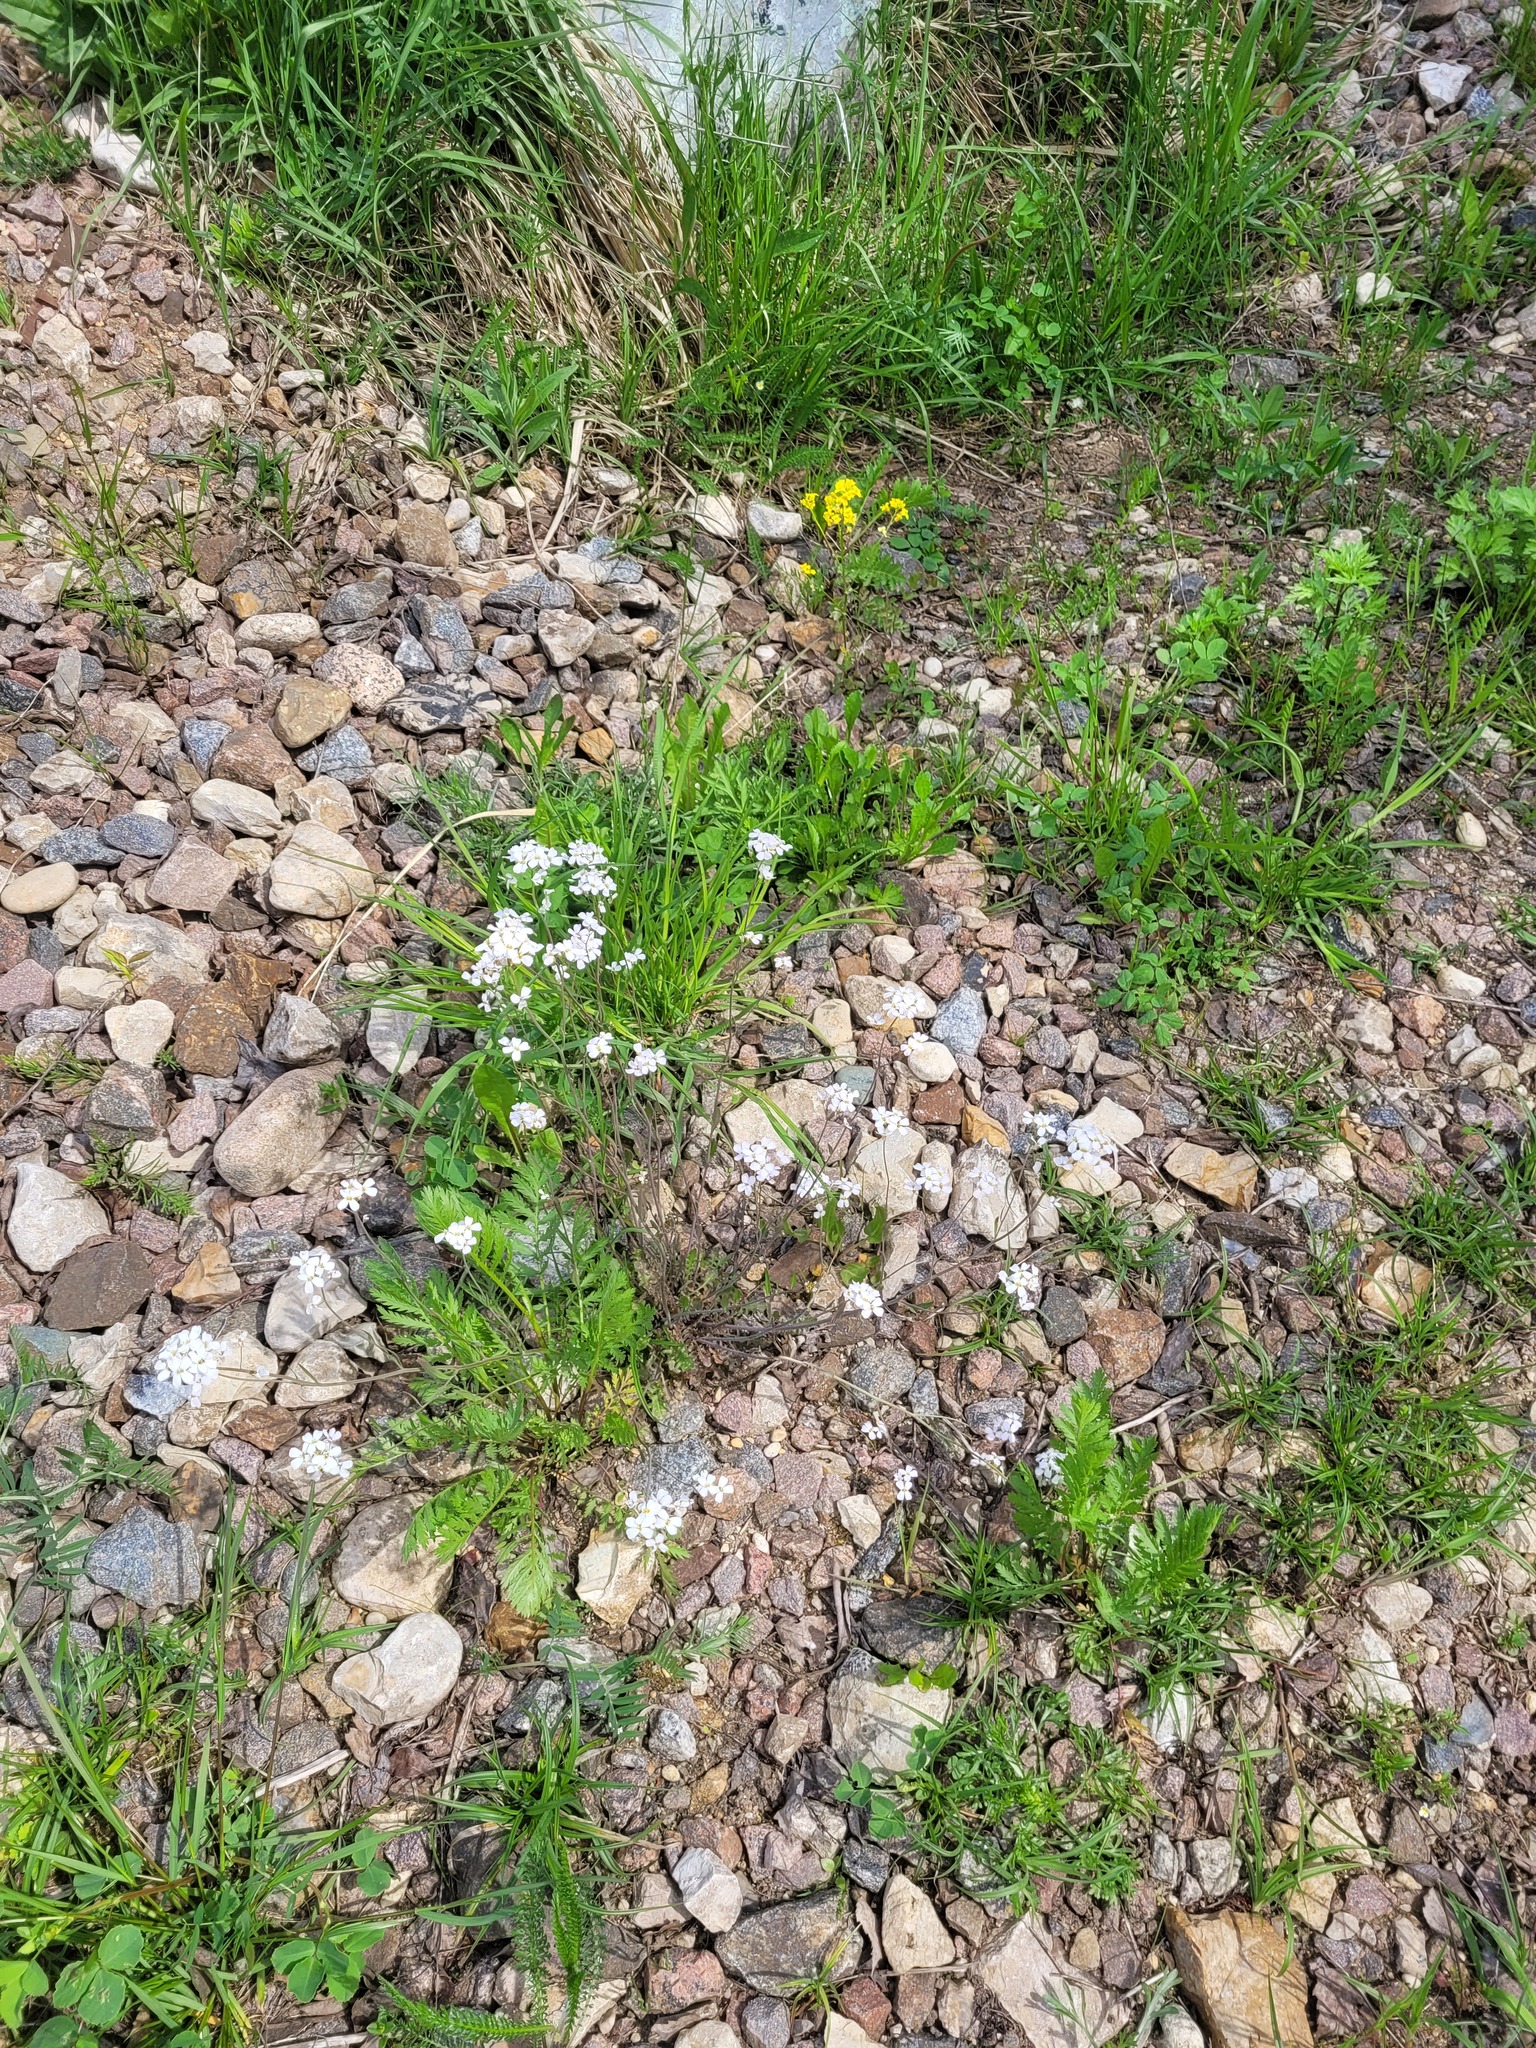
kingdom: Plantae
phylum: Tracheophyta
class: Magnoliopsida
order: Brassicales
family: Brassicaceae
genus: Arabidopsis
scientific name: Arabidopsis arenosa
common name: Sand rock-cress
